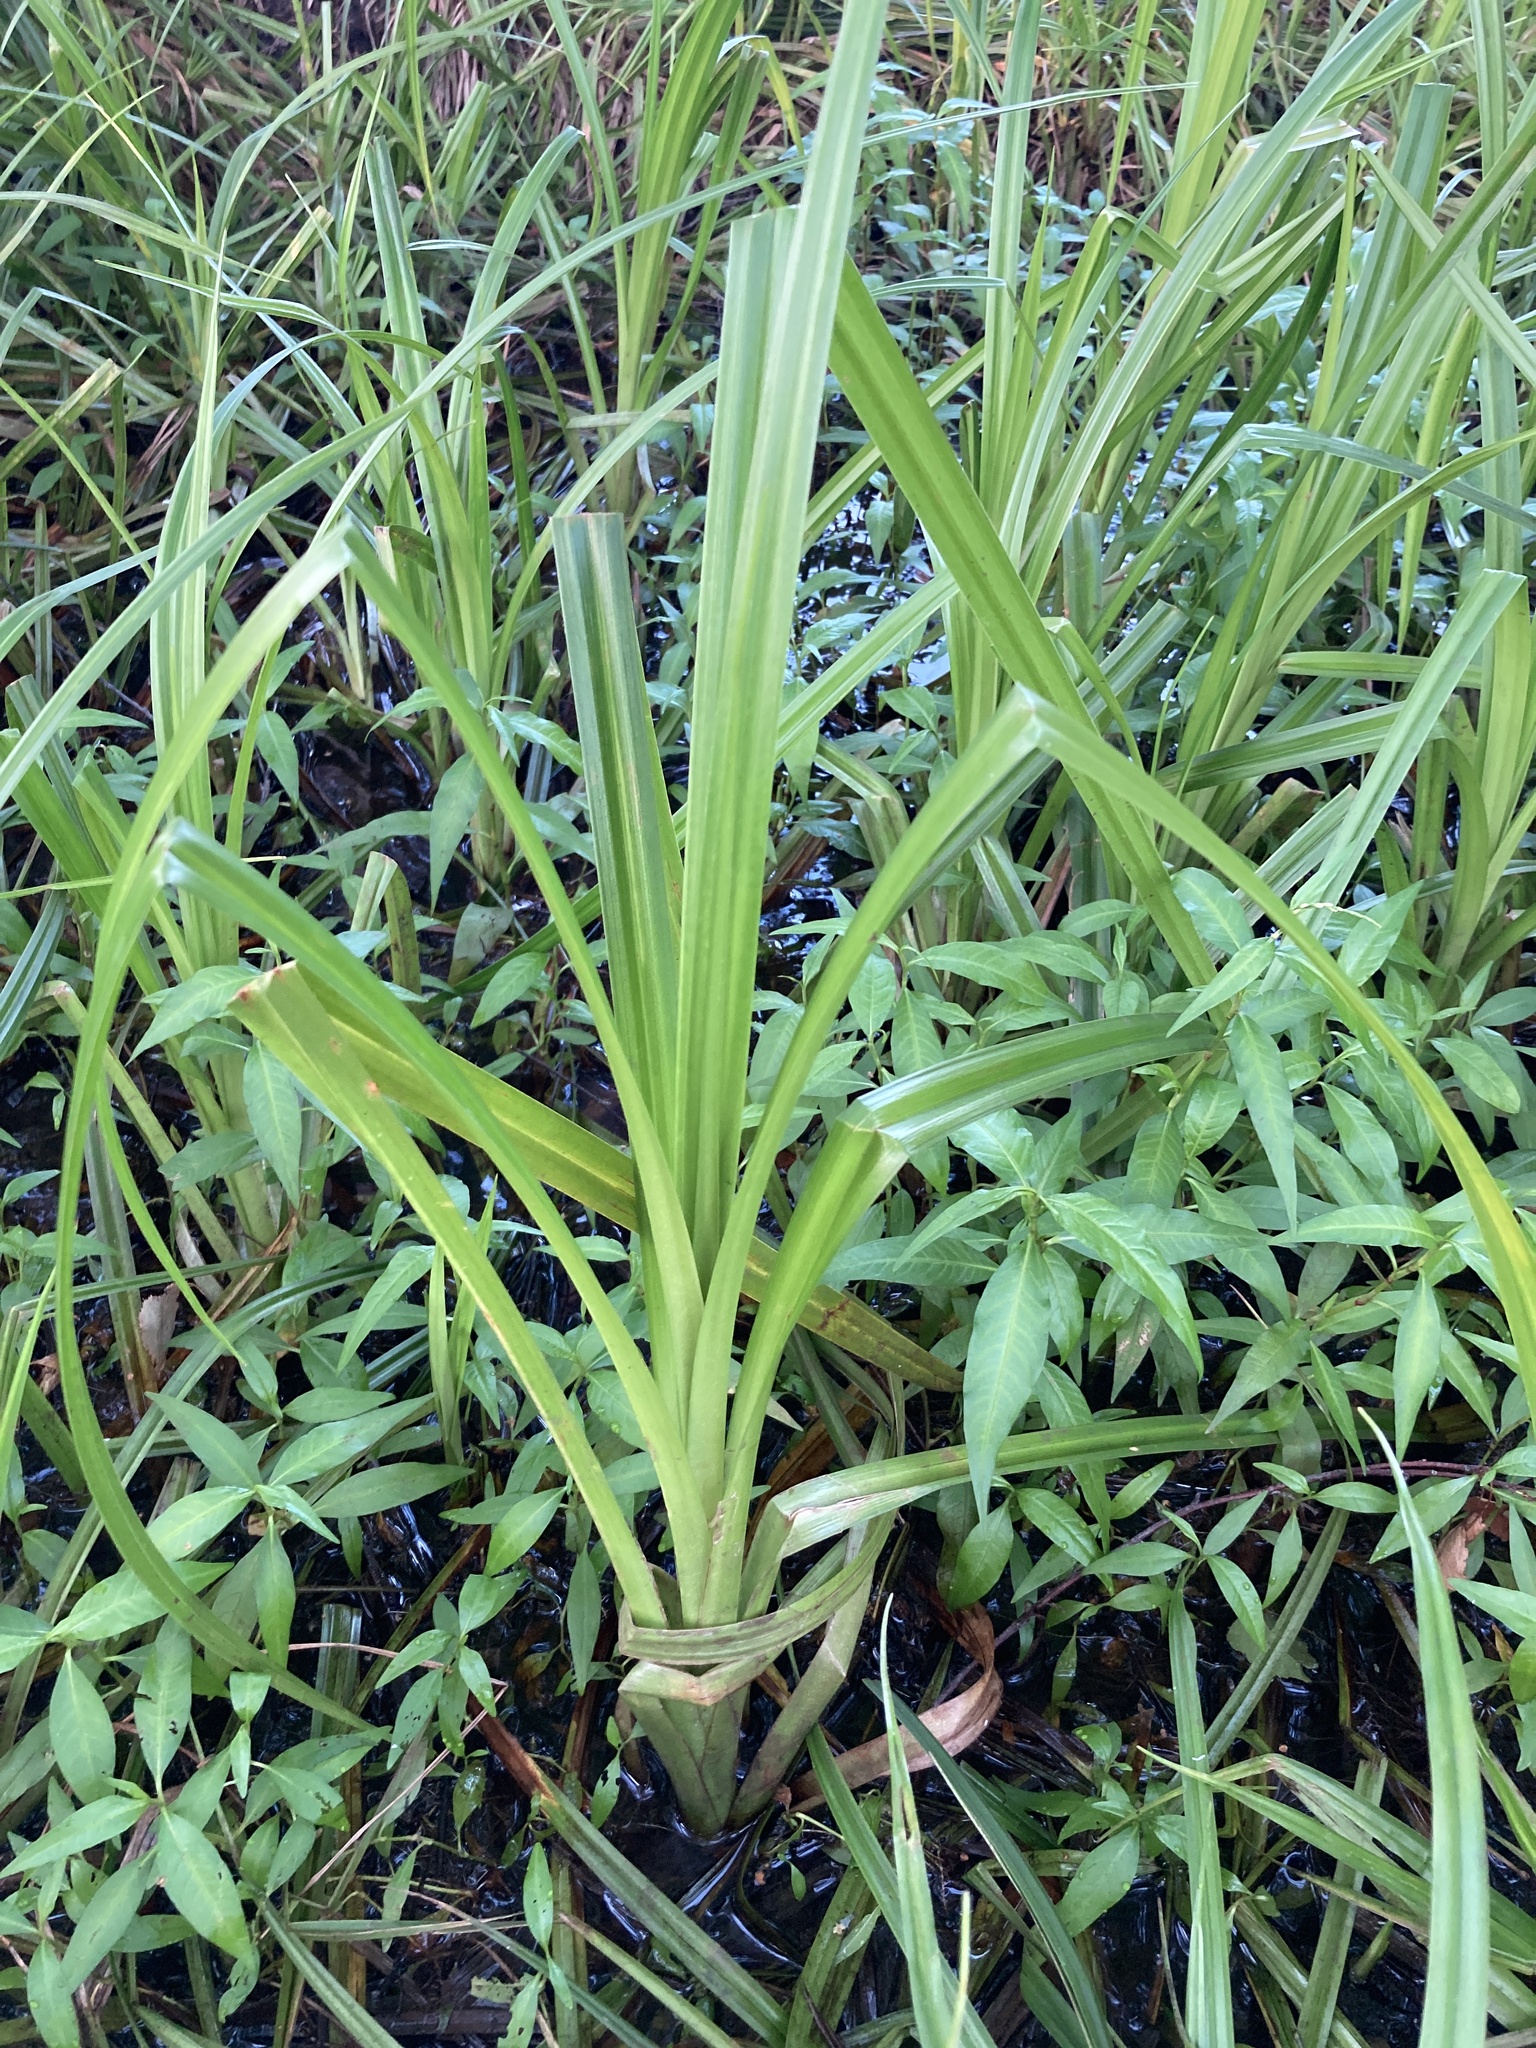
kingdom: Plantae
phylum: Tracheophyta
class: Liliopsida
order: Poales
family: Cyperaceae
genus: Scirpus
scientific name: Scirpus sylvaticus
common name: Wood club-rush
